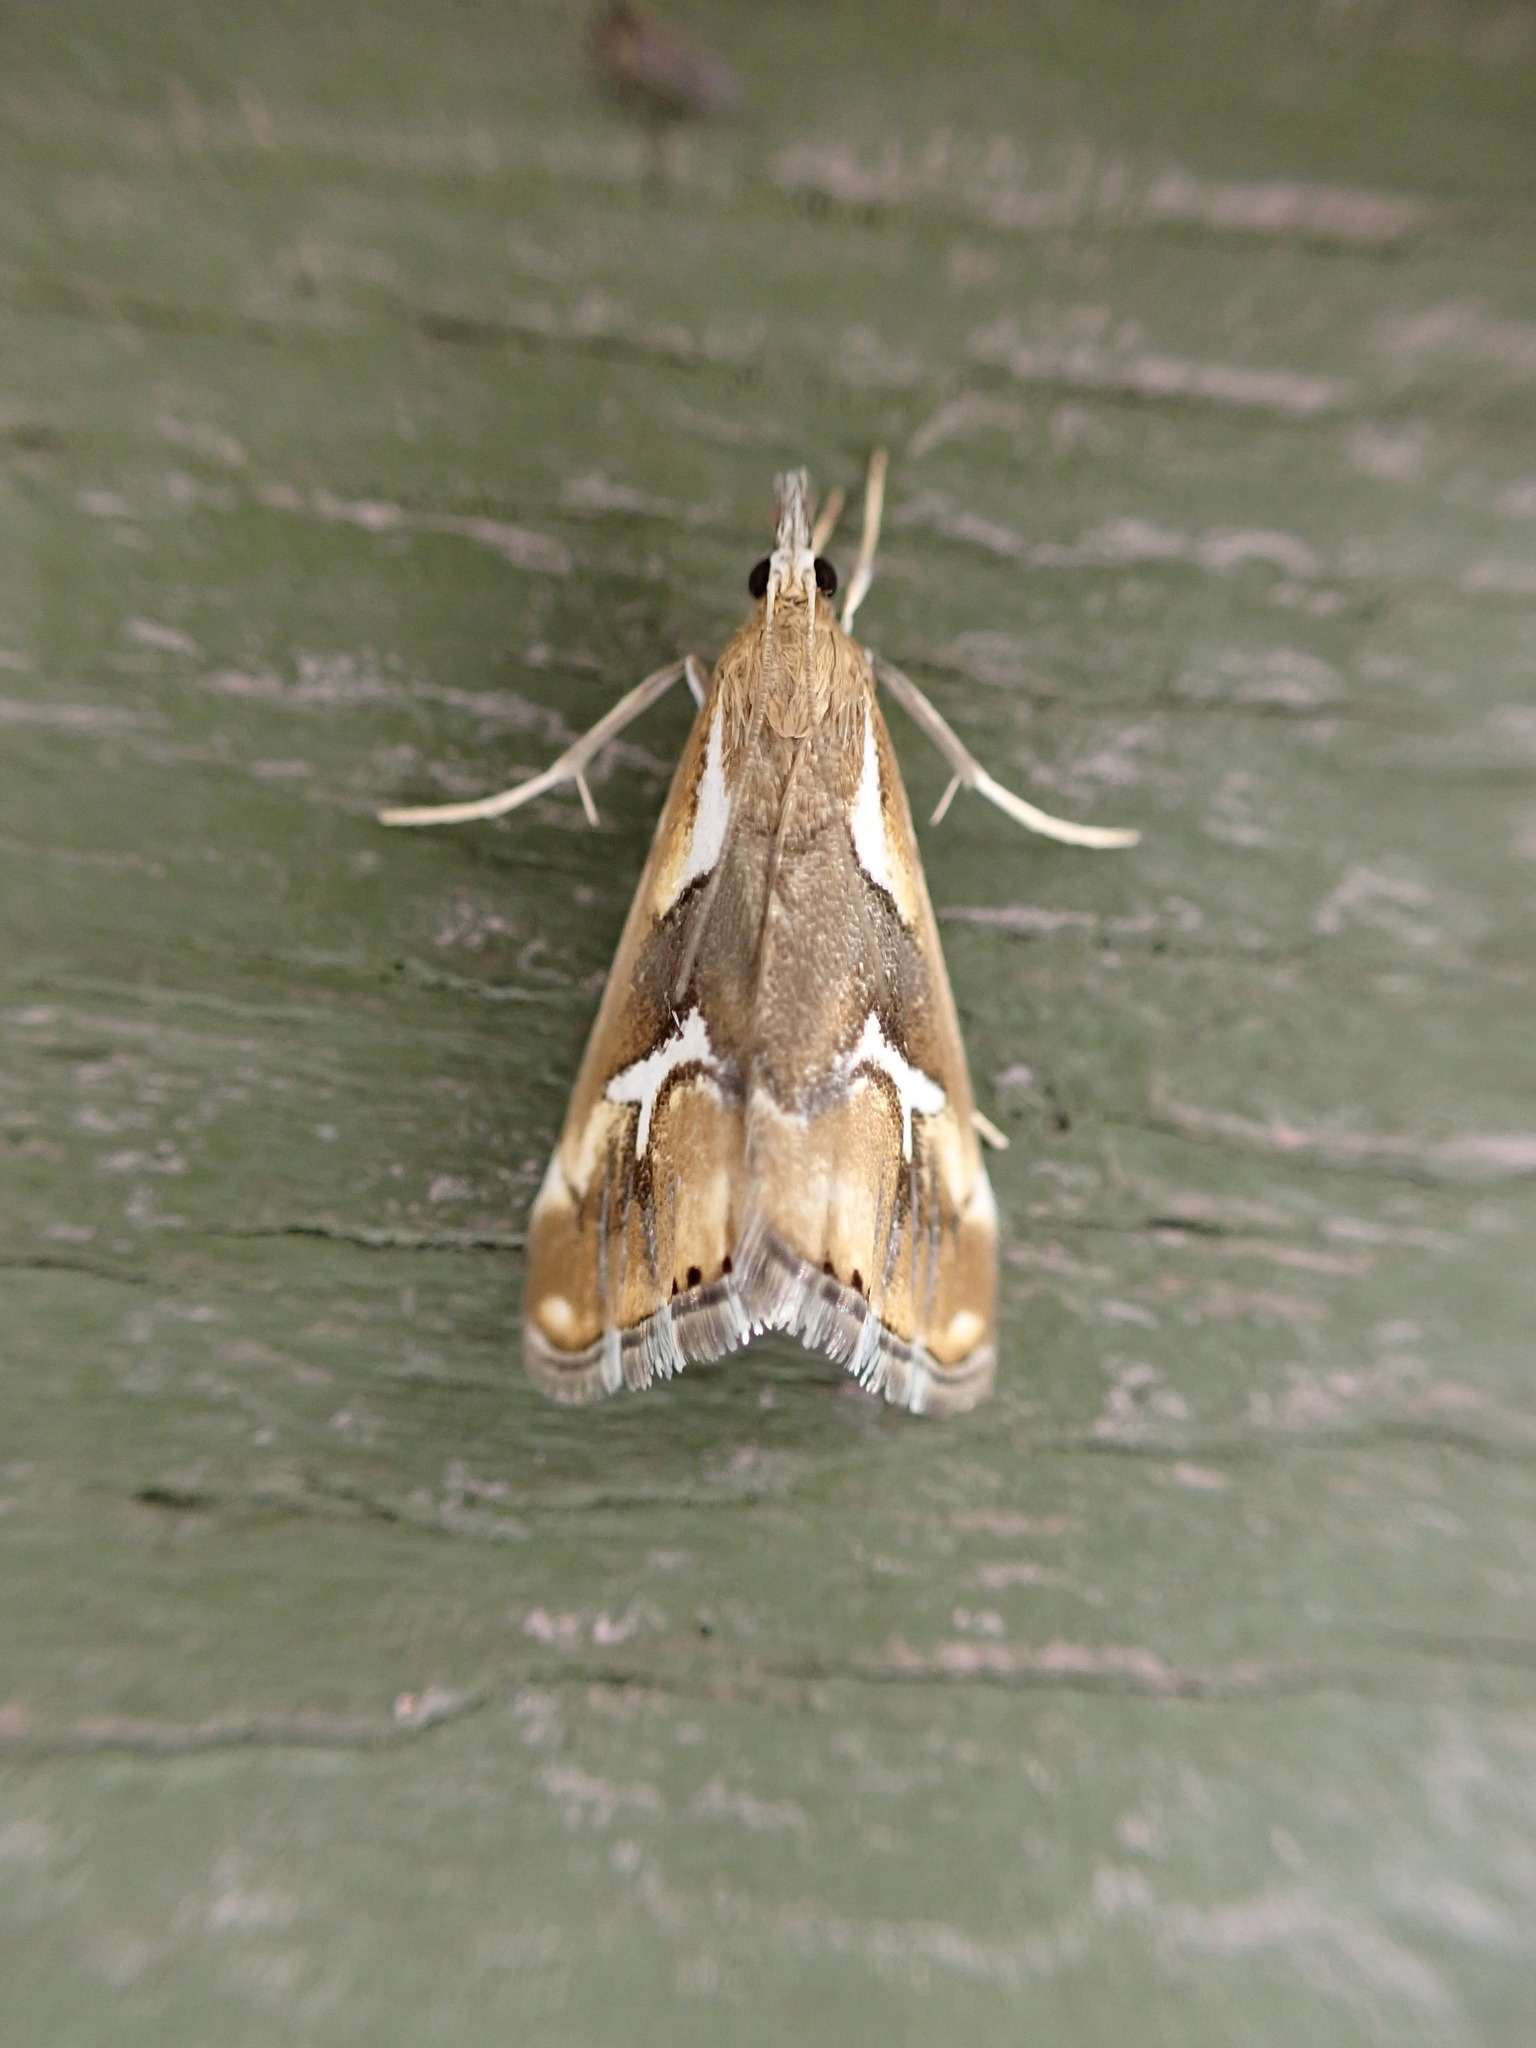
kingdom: Animalia
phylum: Arthropoda
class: Insecta
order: Lepidoptera
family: Crambidae
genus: Glaucocharis
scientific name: Glaucocharis interruptus
